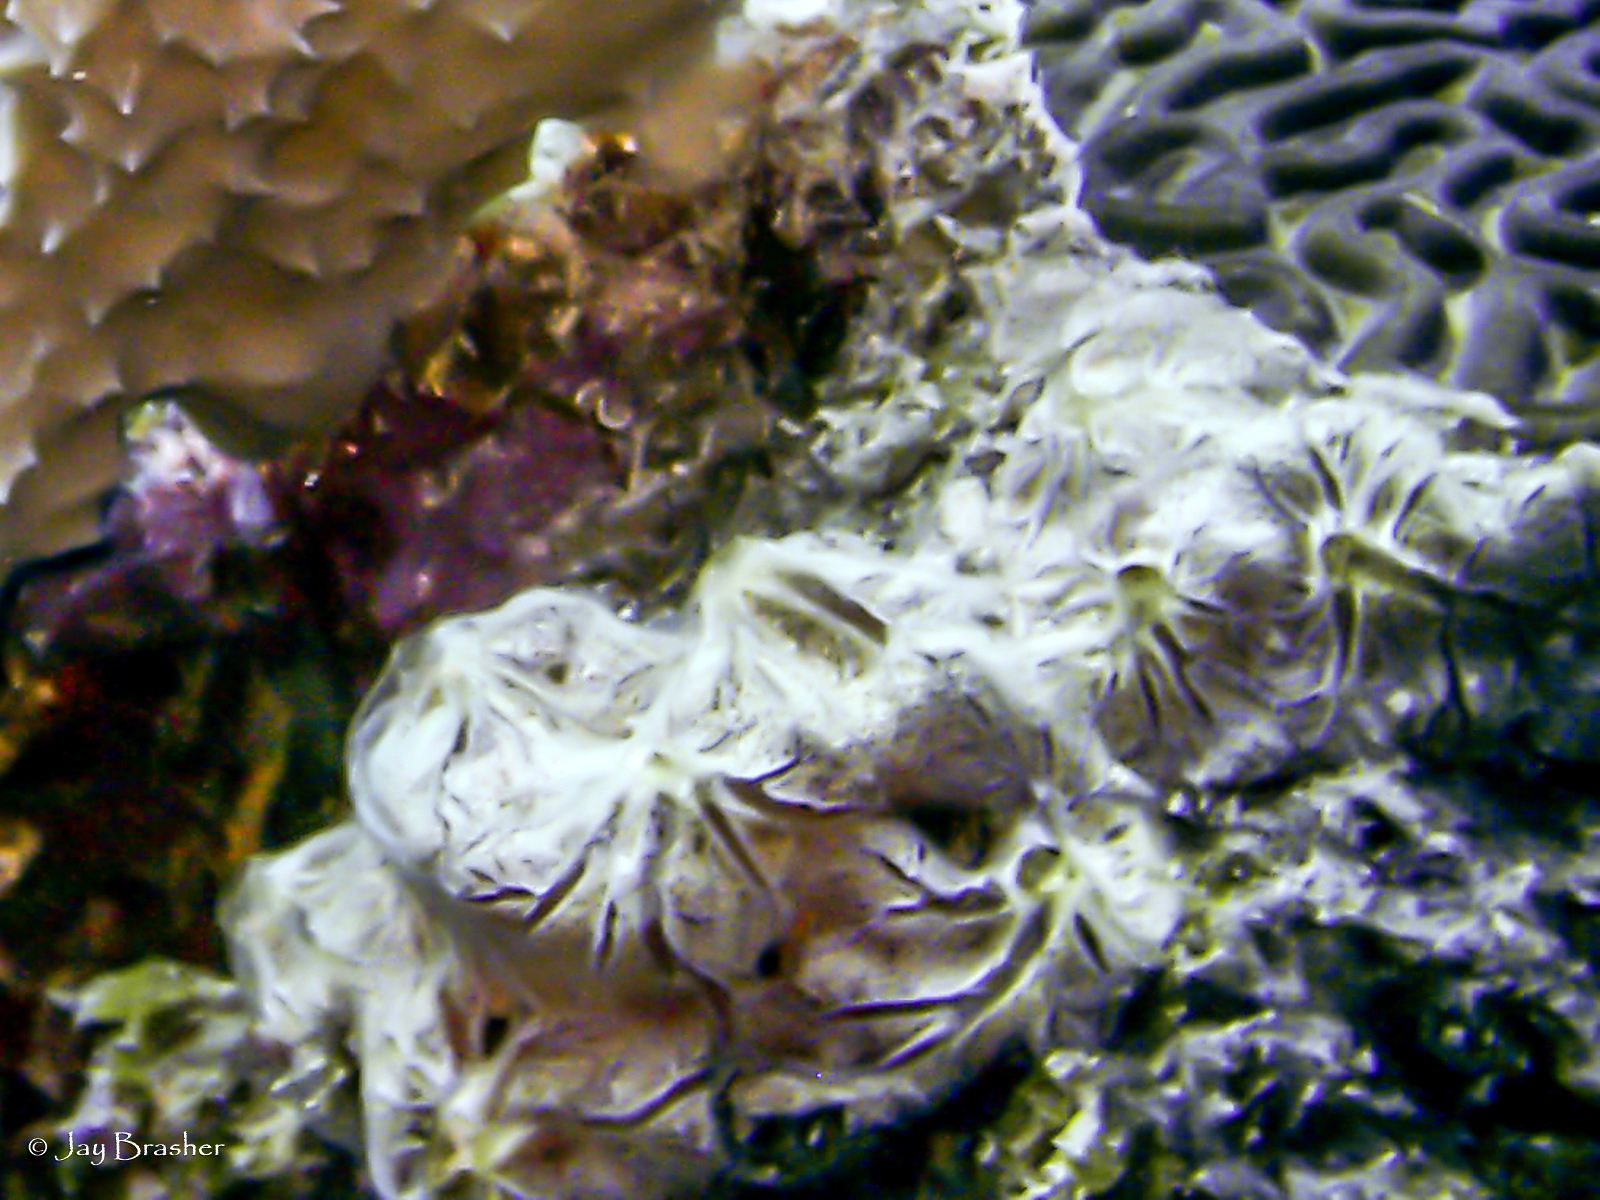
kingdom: Animalia
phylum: Porifera
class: Demospongiae
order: Poecilosclerida
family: Microcionidae
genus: Clathria
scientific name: Clathria curacaoensis
